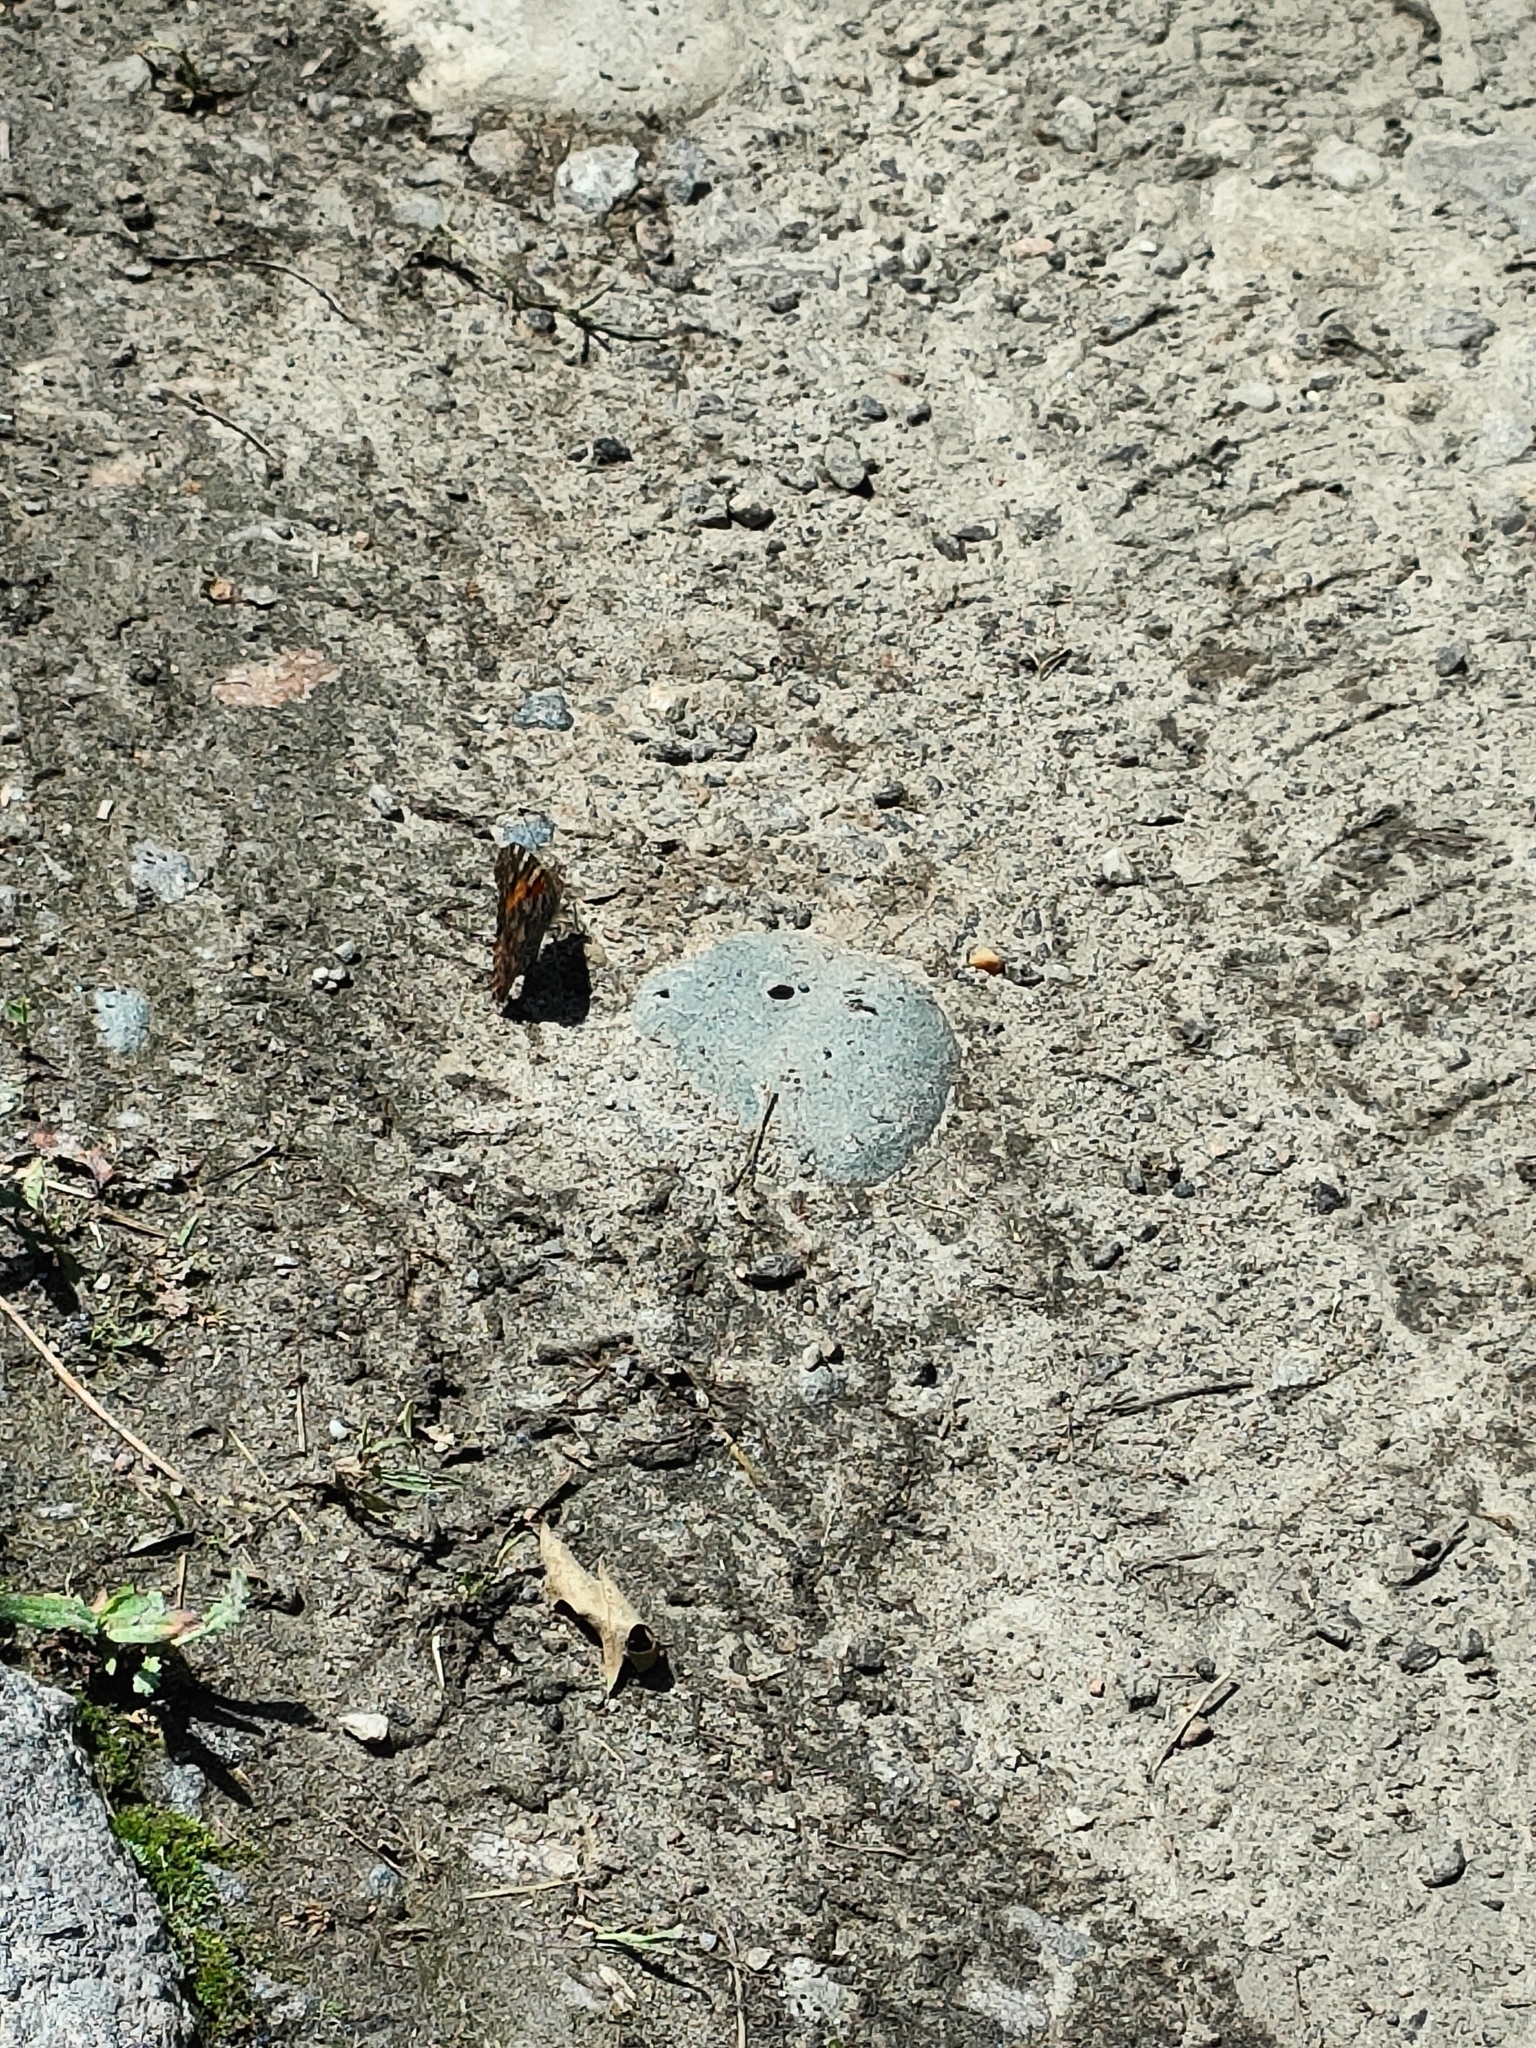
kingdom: Animalia
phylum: Arthropoda
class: Insecta
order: Lepidoptera
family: Nymphalidae
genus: Vanessa
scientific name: Vanessa cardui
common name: Painted lady
